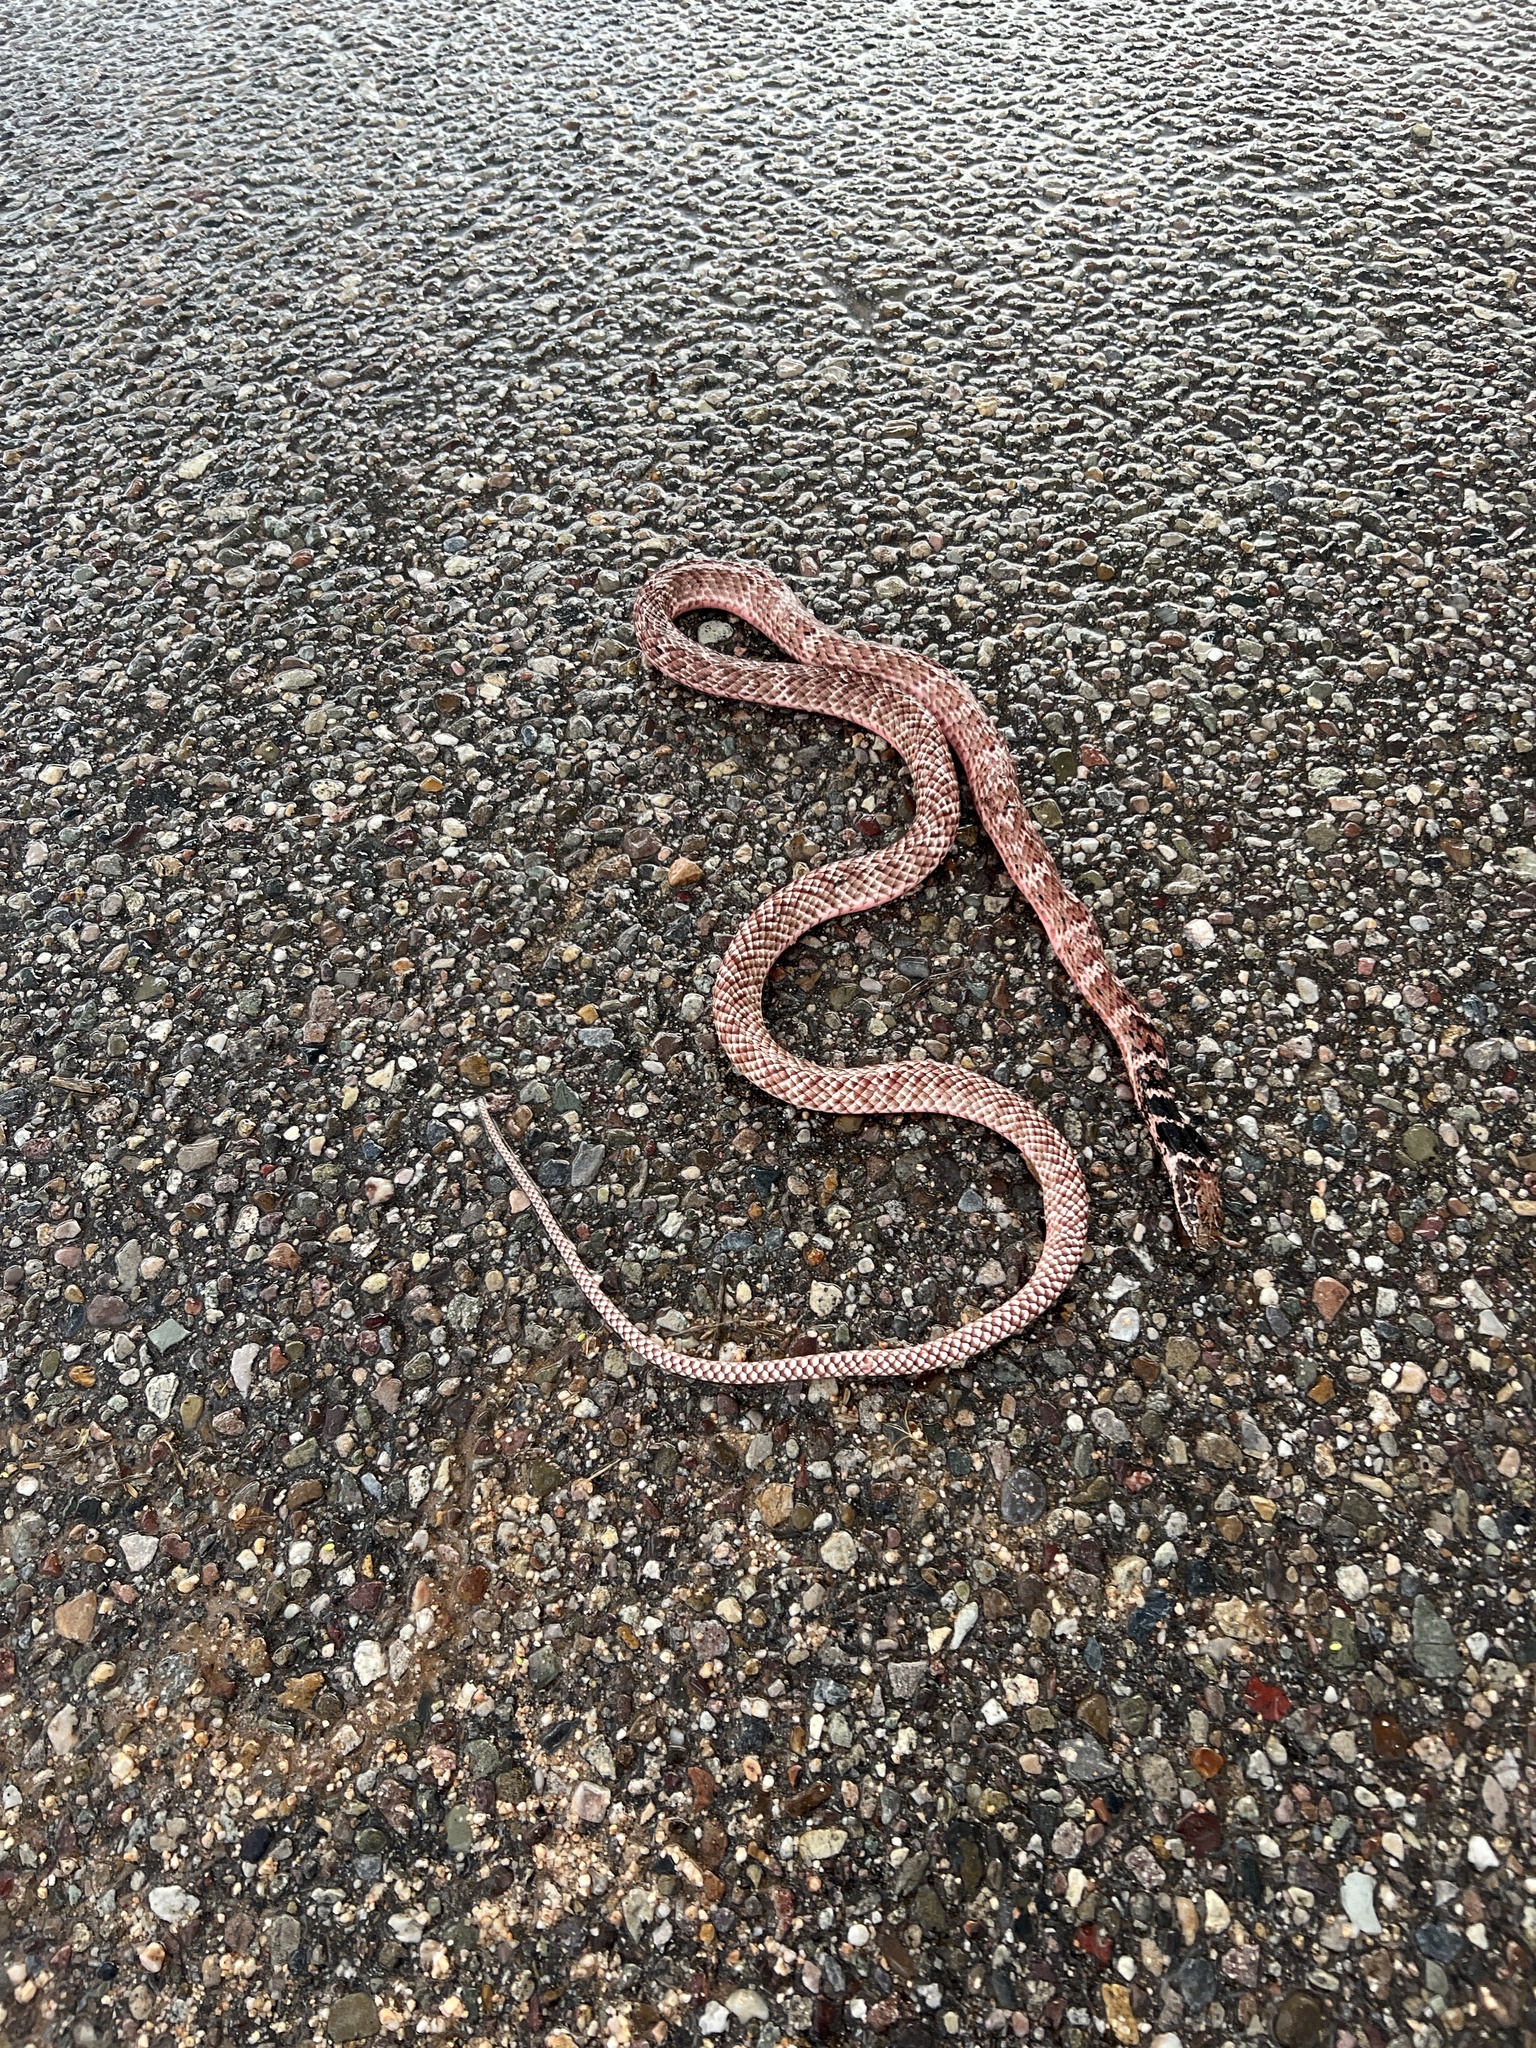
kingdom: Animalia
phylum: Chordata
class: Squamata
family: Colubridae
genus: Masticophis
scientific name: Masticophis flagellum
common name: Coachwhip
